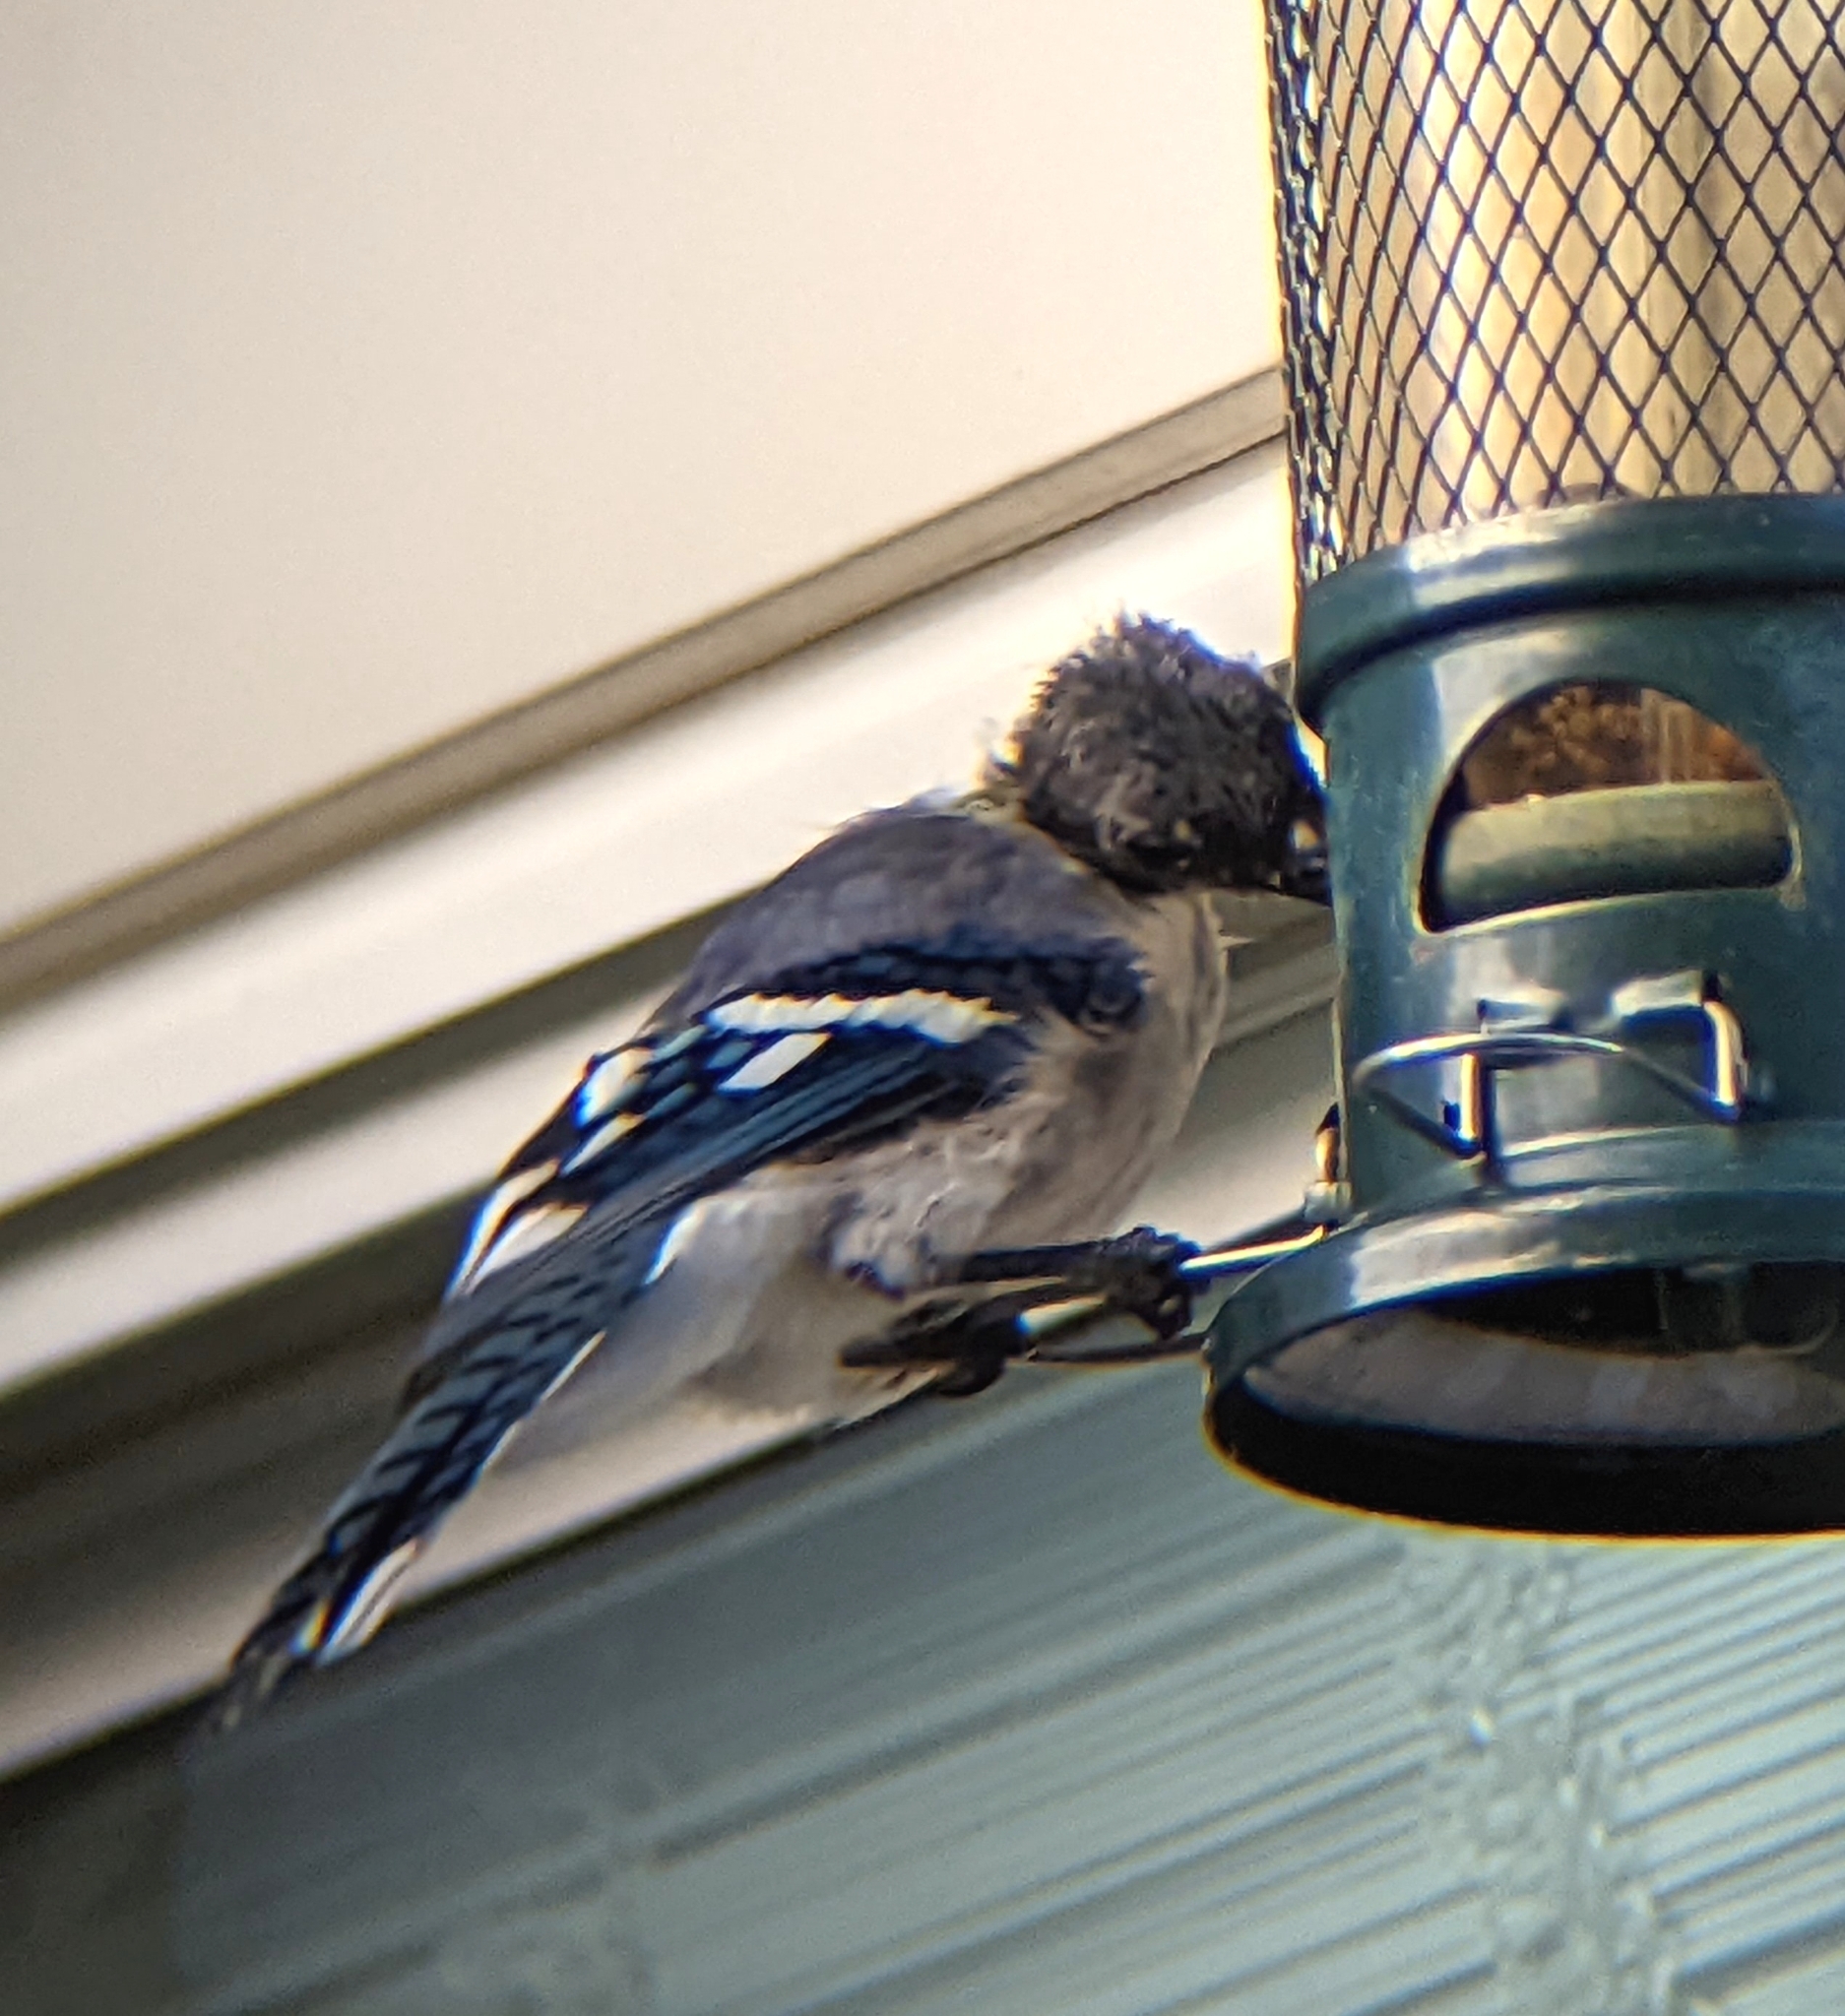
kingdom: Animalia
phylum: Chordata
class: Aves
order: Passeriformes
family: Corvidae
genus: Cyanocitta
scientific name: Cyanocitta cristata
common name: Blue jay
